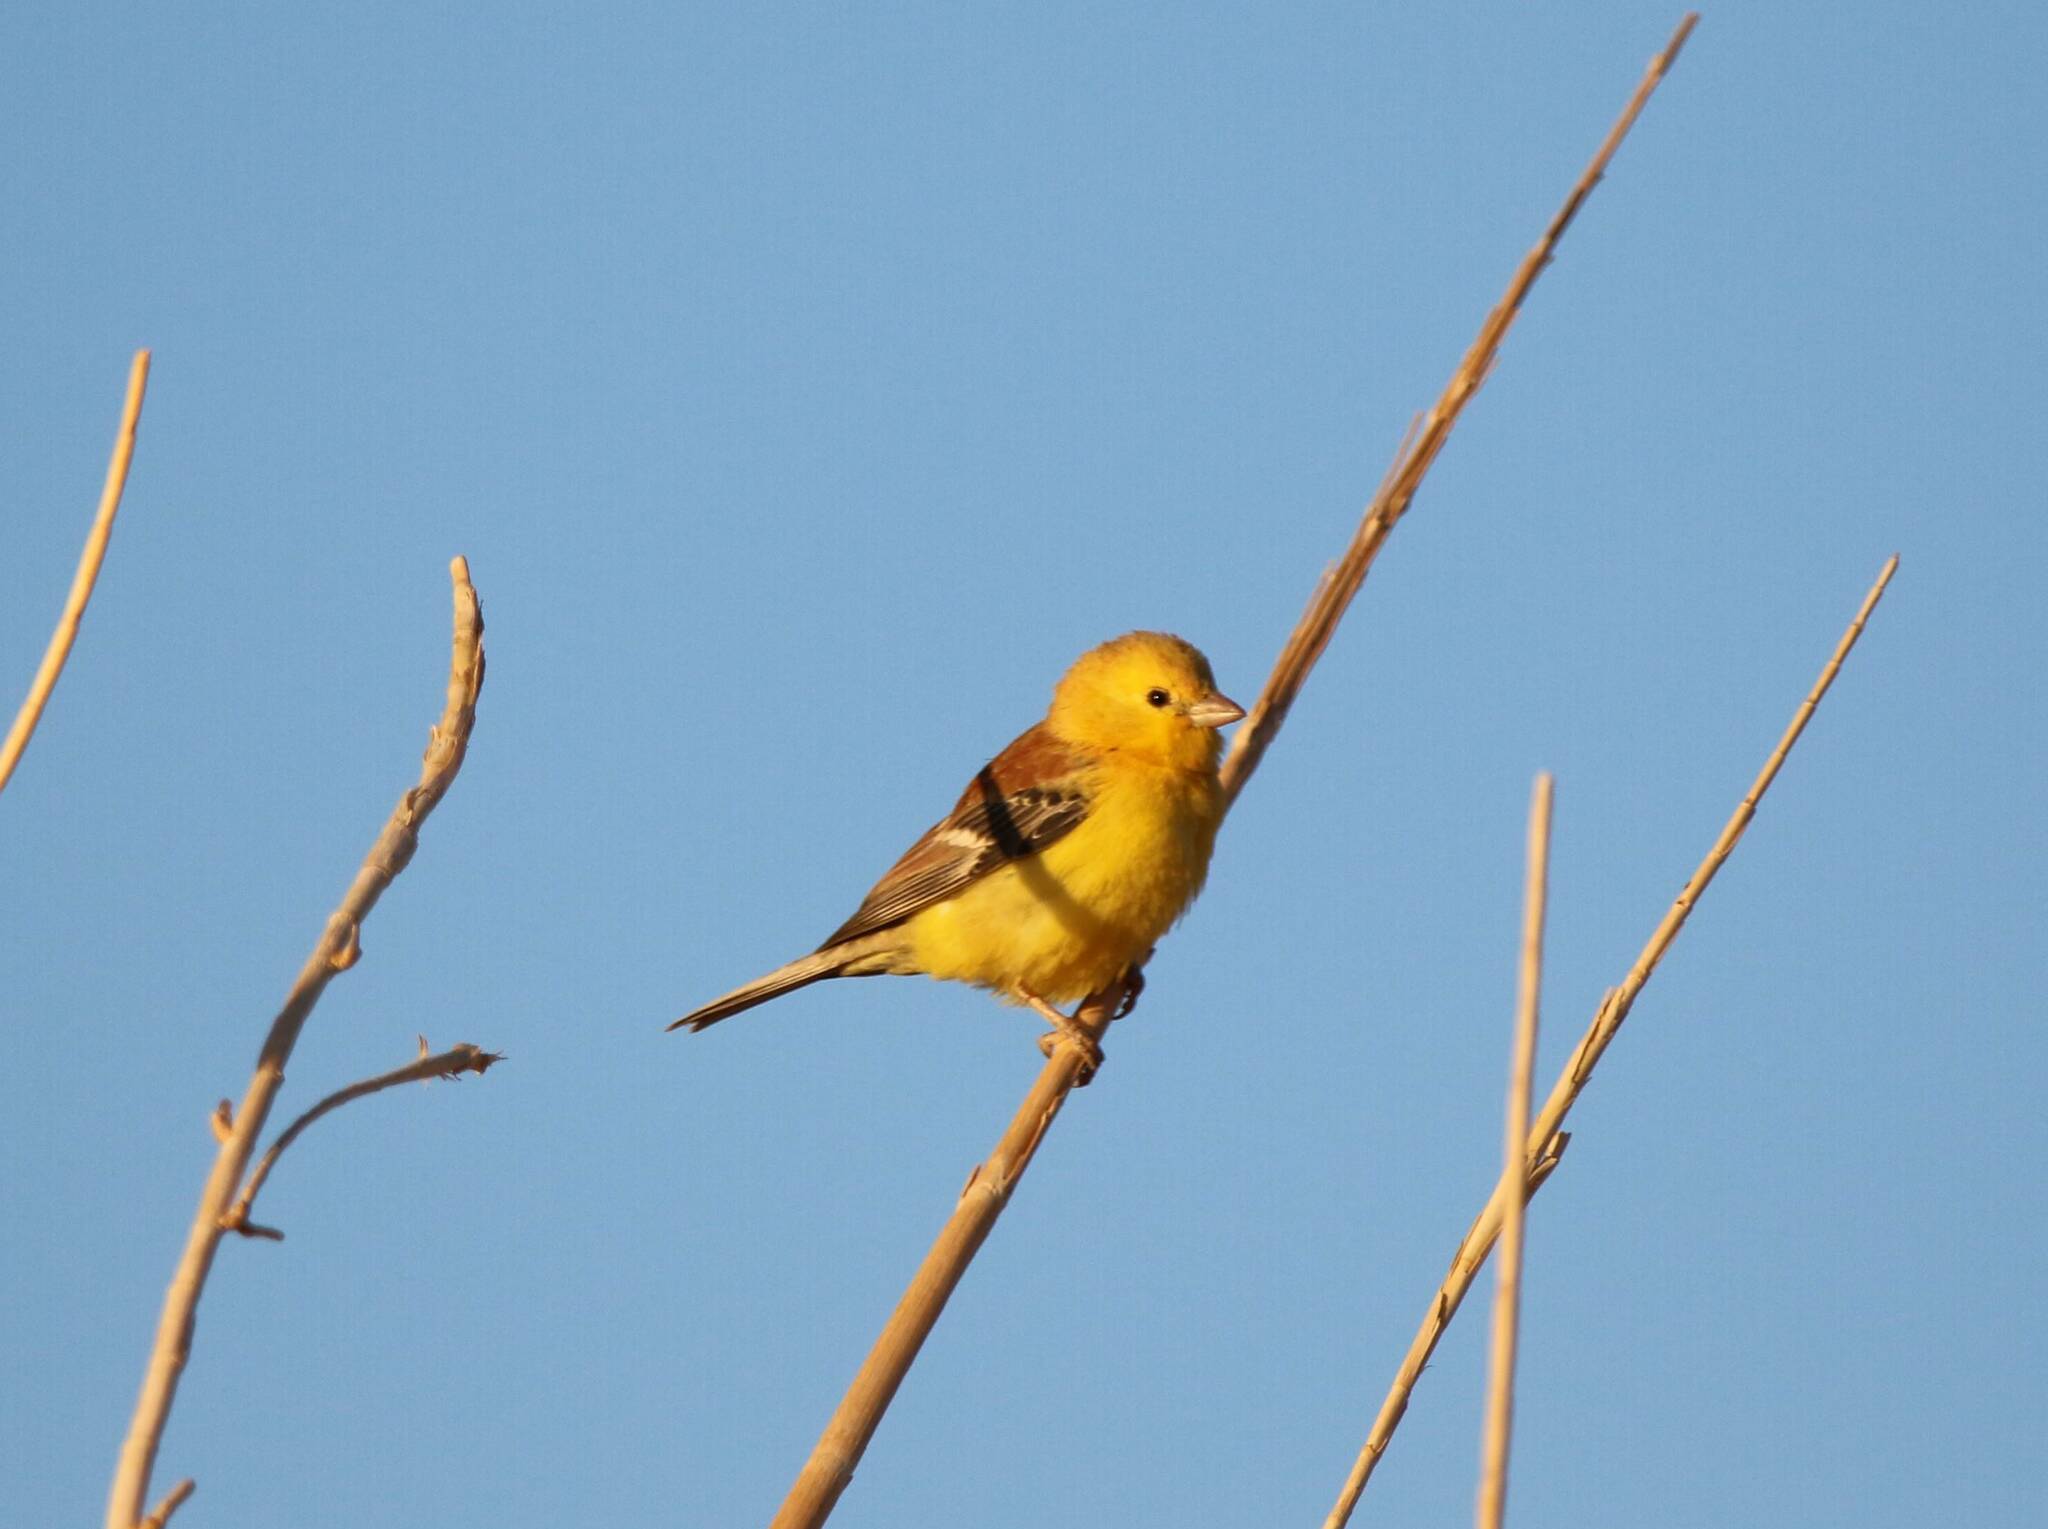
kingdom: Animalia
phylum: Chordata
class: Aves
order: Passeriformes
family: Passeridae
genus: Passer
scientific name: Passer luteus
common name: Sudan golden sparrow
